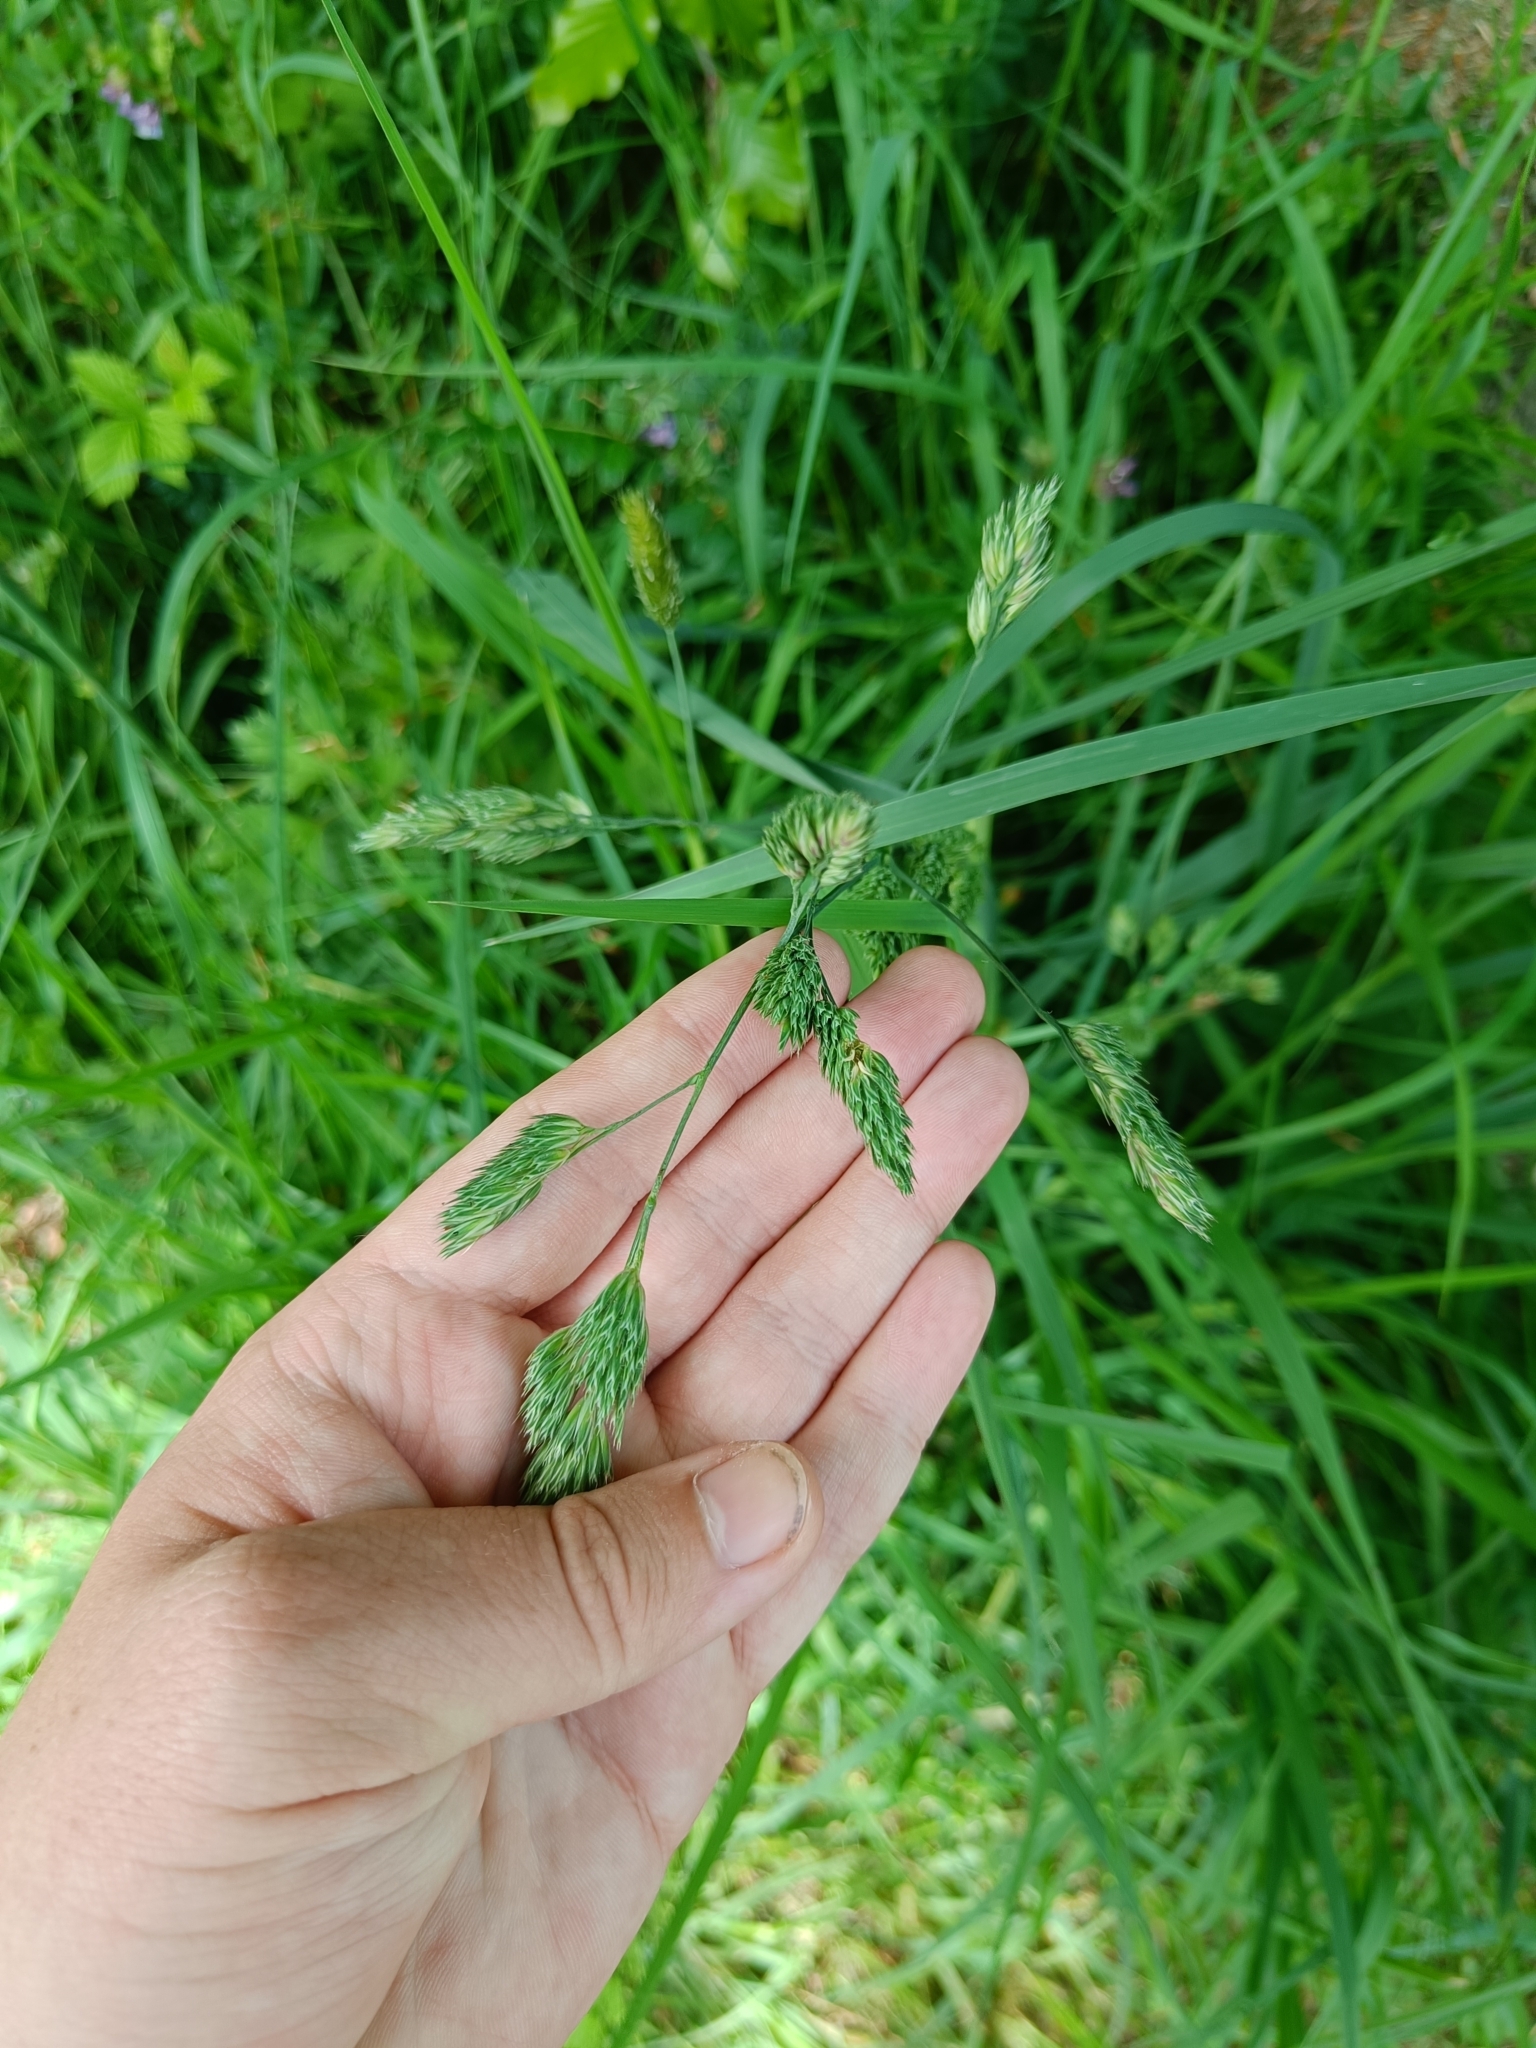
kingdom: Plantae
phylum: Tracheophyta
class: Liliopsida
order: Poales
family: Poaceae
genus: Dactylis
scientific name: Dactylis glomerata
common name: Orchardgrass
